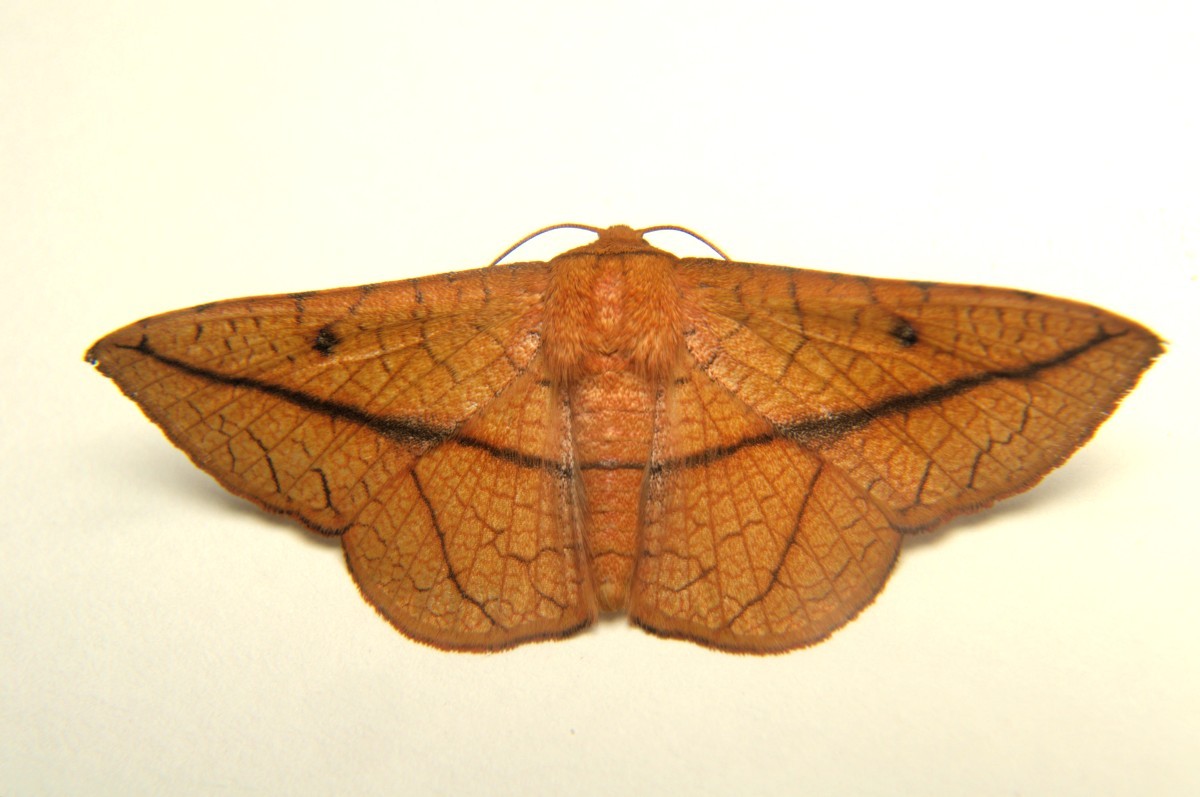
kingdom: Animalia
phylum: Arthropoda
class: Insecta
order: Lepidoptera
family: Thyrididae
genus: Telchines
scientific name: Telchines vialis
